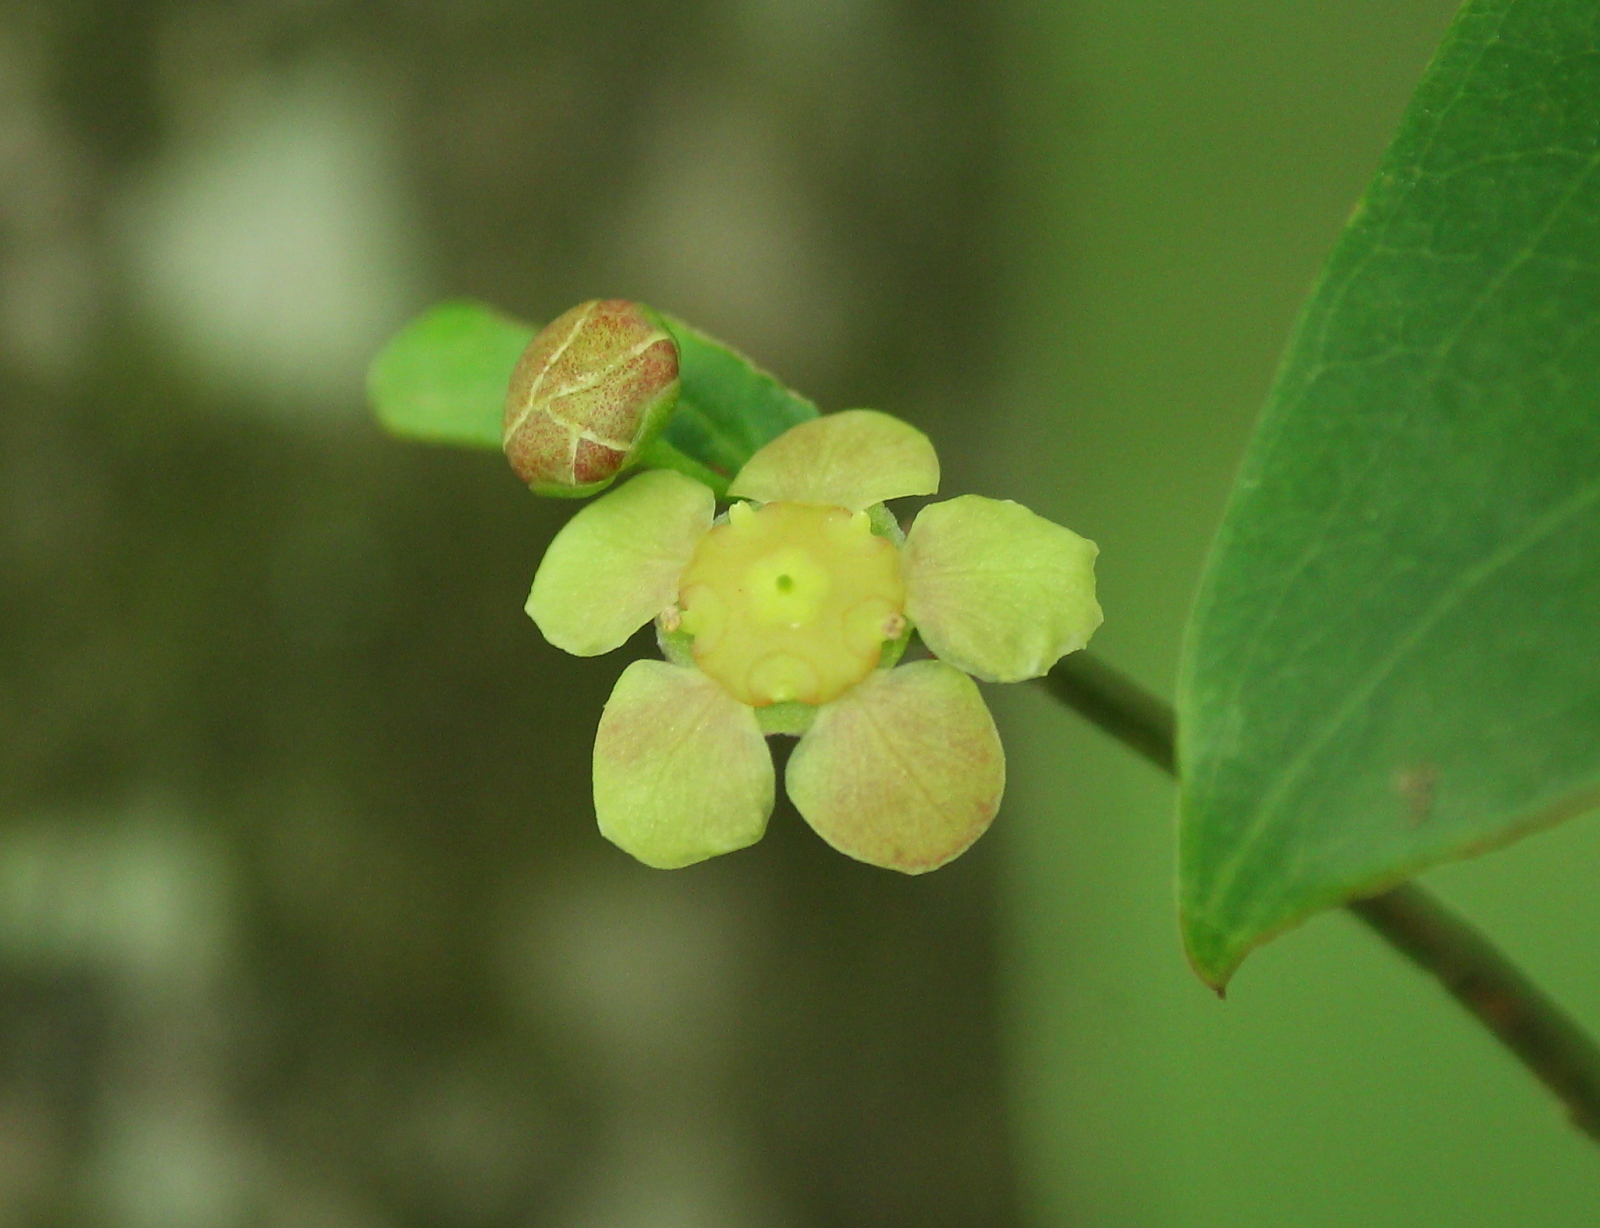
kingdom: Plantae
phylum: Tracheophyta
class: Magnoliopsida
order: Celastrales
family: Celastraceae
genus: Euonymus
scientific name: Euonymus americanus
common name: Bursting-heart
